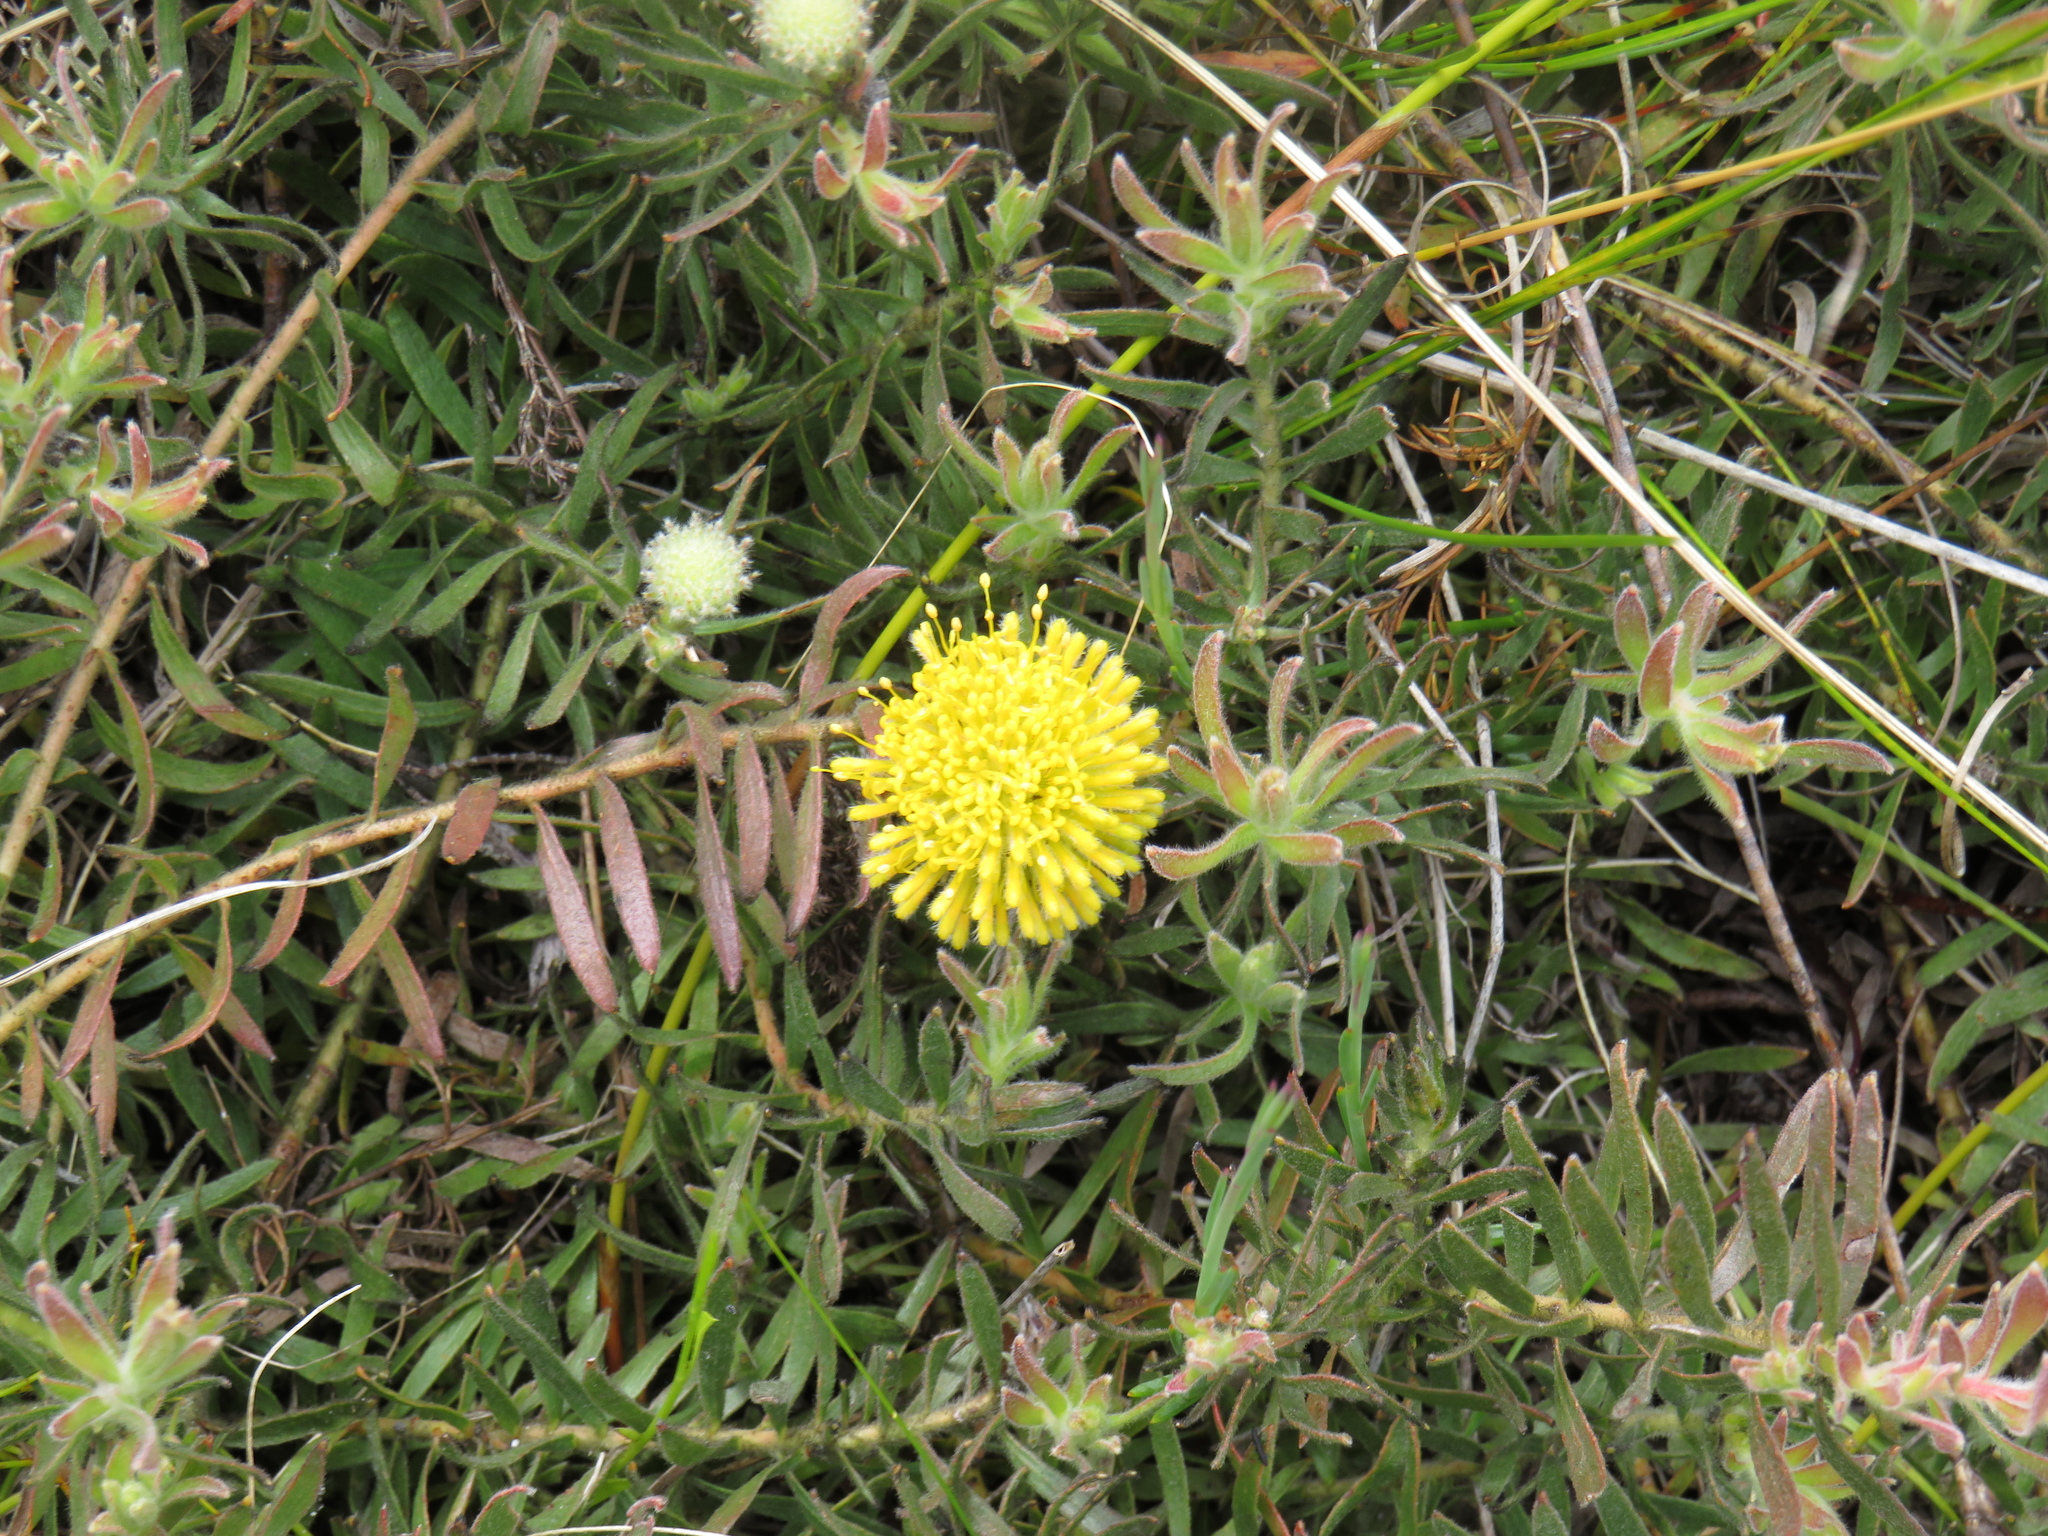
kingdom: Plantae
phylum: Tracheophyta
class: Magnoliopsida
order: Proteales
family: Proteaceae
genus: Leucospermum
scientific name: Leucospermum prostratum
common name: Yellow-trailing pincushion
